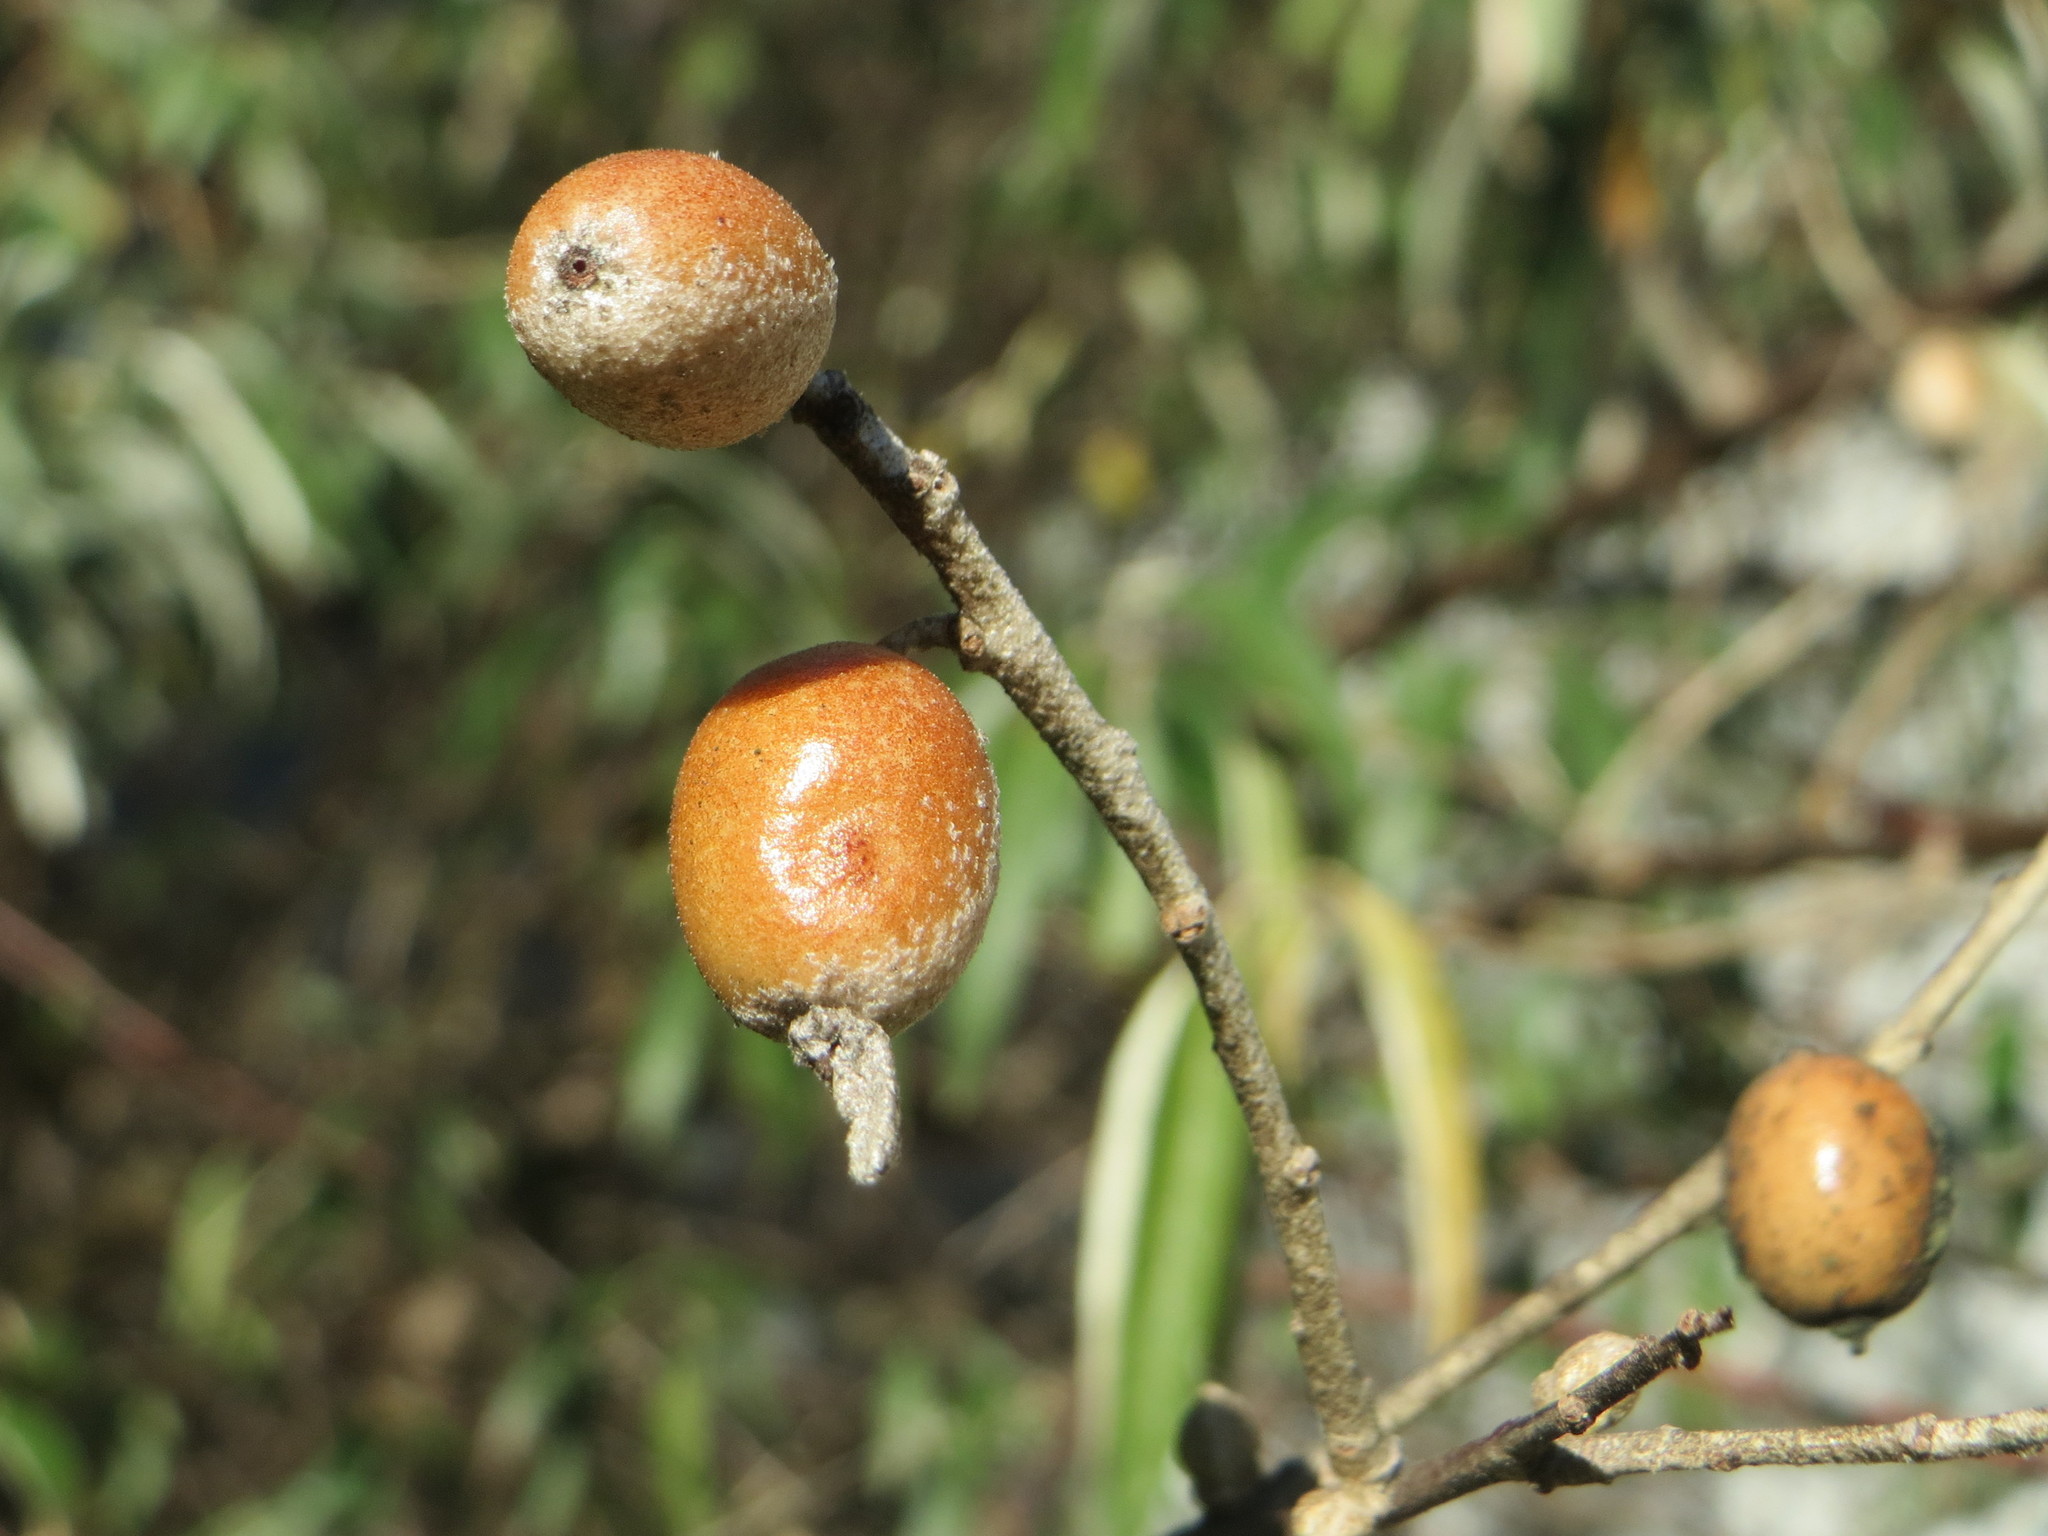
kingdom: Plantae
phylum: Tracheophyta
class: Magnoliopsida
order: Rosales
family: Elaeagnaceae
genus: Elaeagnus
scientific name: Elaeagnus angustifolia
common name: Russian olive
